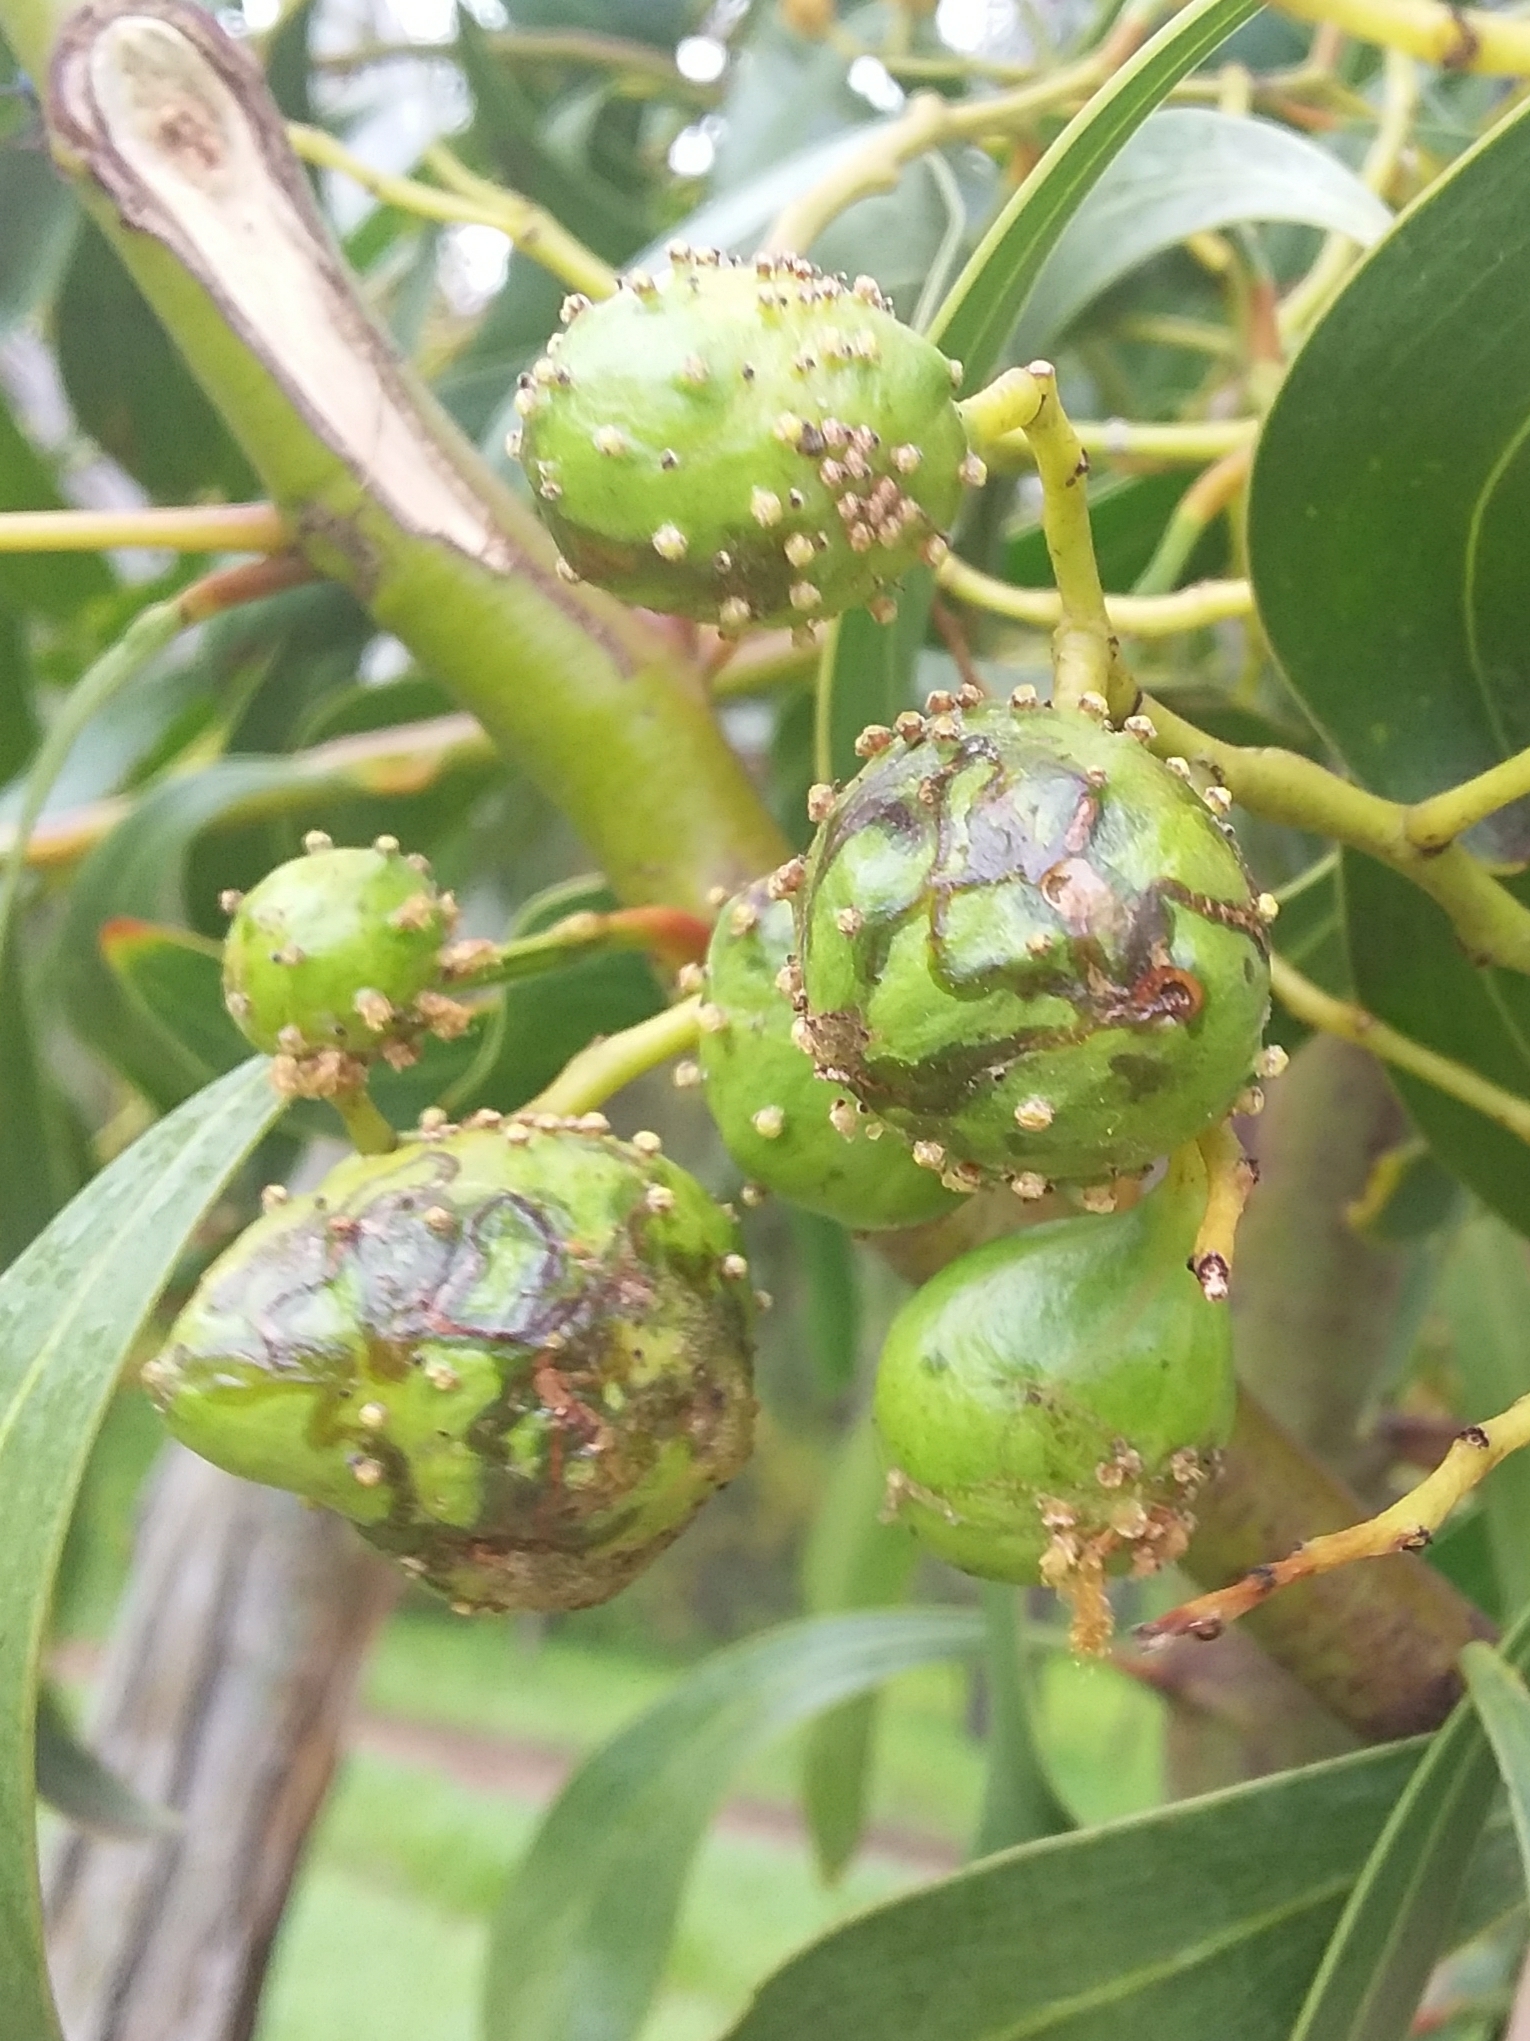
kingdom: Animalia
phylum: Arthropoda
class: Insecta
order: Hymenoptera
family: Pteromalidae
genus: Trichilogaster
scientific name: Trichilogaster signiventris
